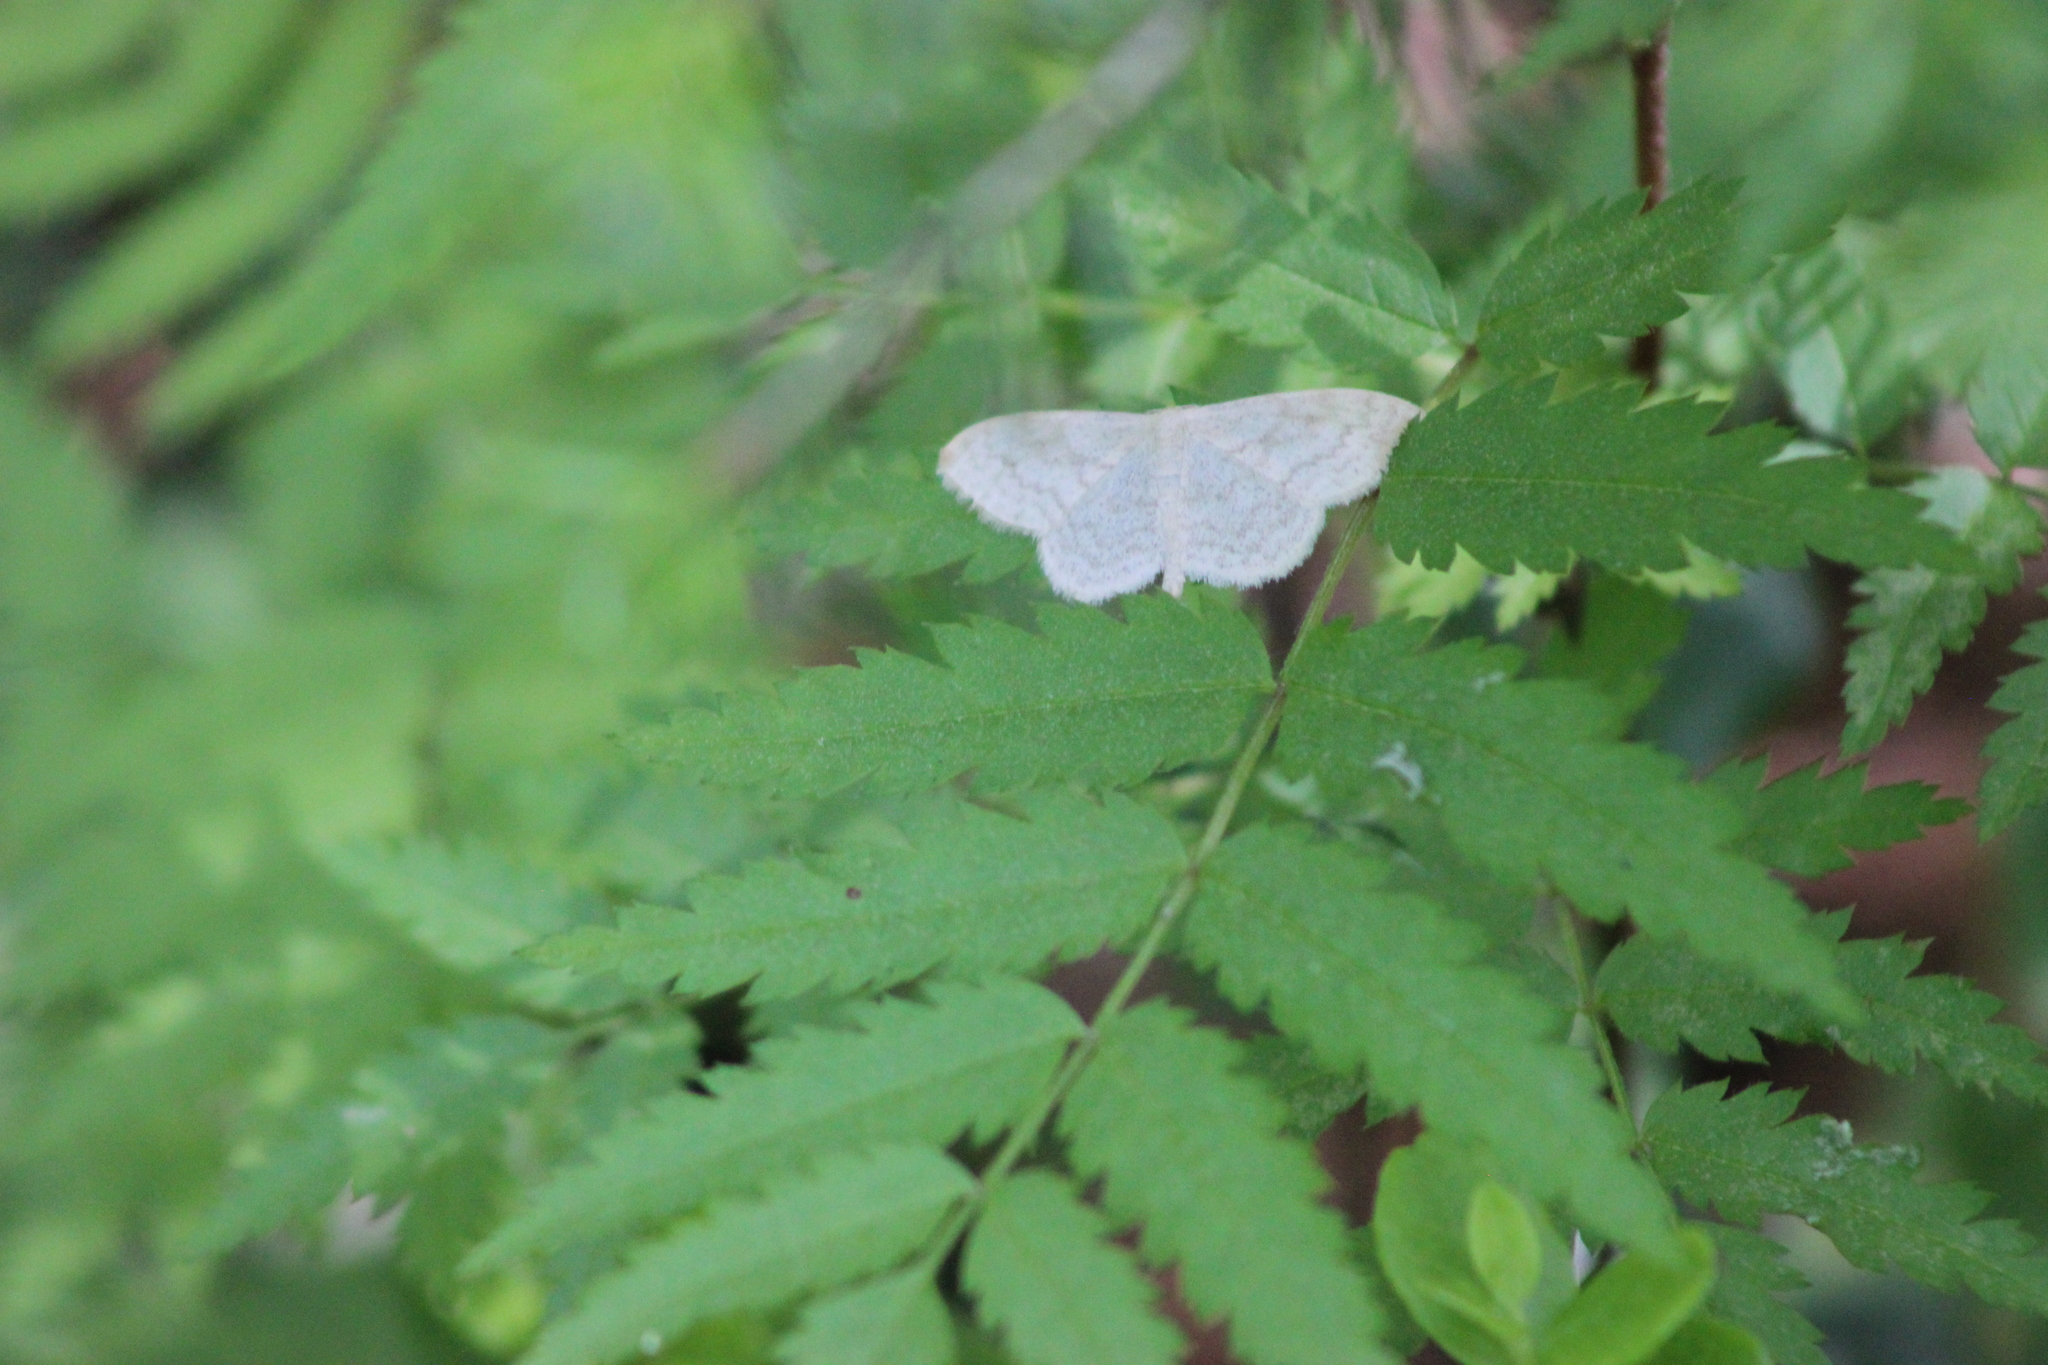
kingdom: Animalia
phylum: Arthropoda
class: Insecta
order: Lepidoptera
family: Geometridae
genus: Scopula
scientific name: Scopula floslactata
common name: Cream wave
